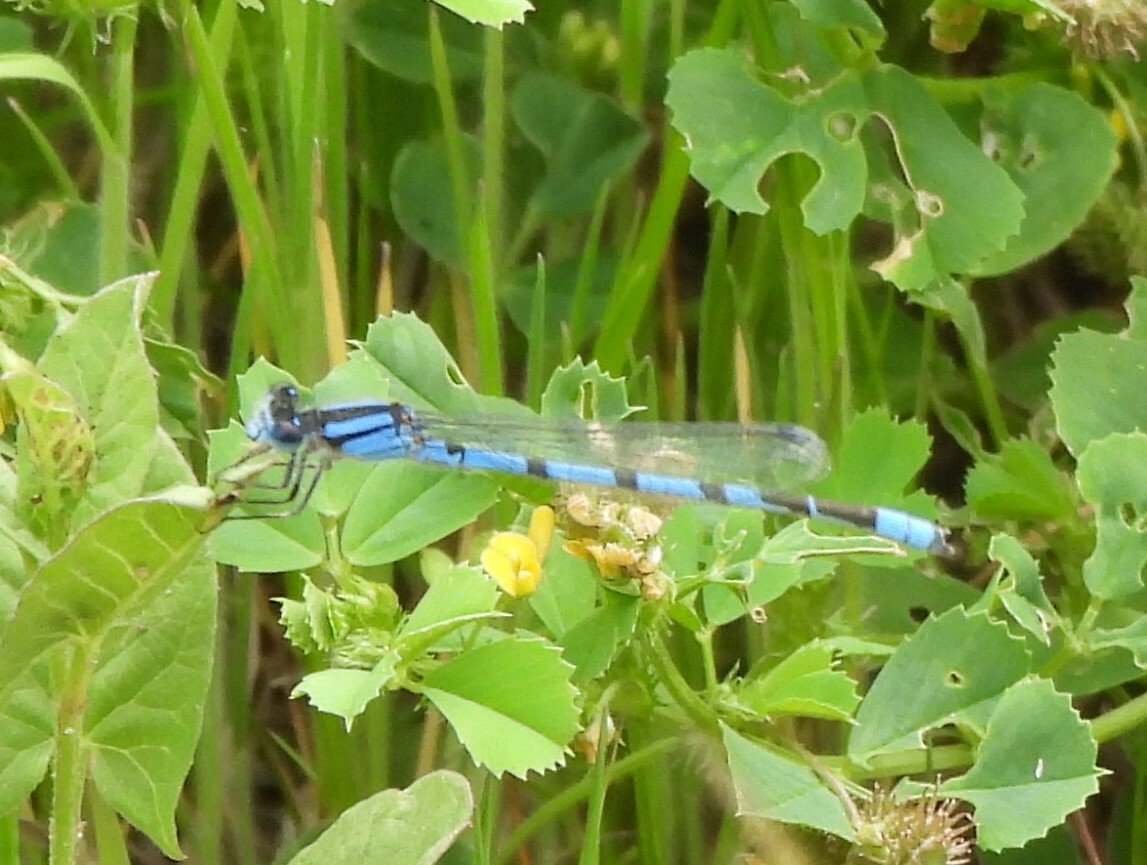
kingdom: Animalia
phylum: Arthropoda
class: Insecta
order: Odonata
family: Coenagrionidae
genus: Enallagma
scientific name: Enallagma civile
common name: Damselfly
